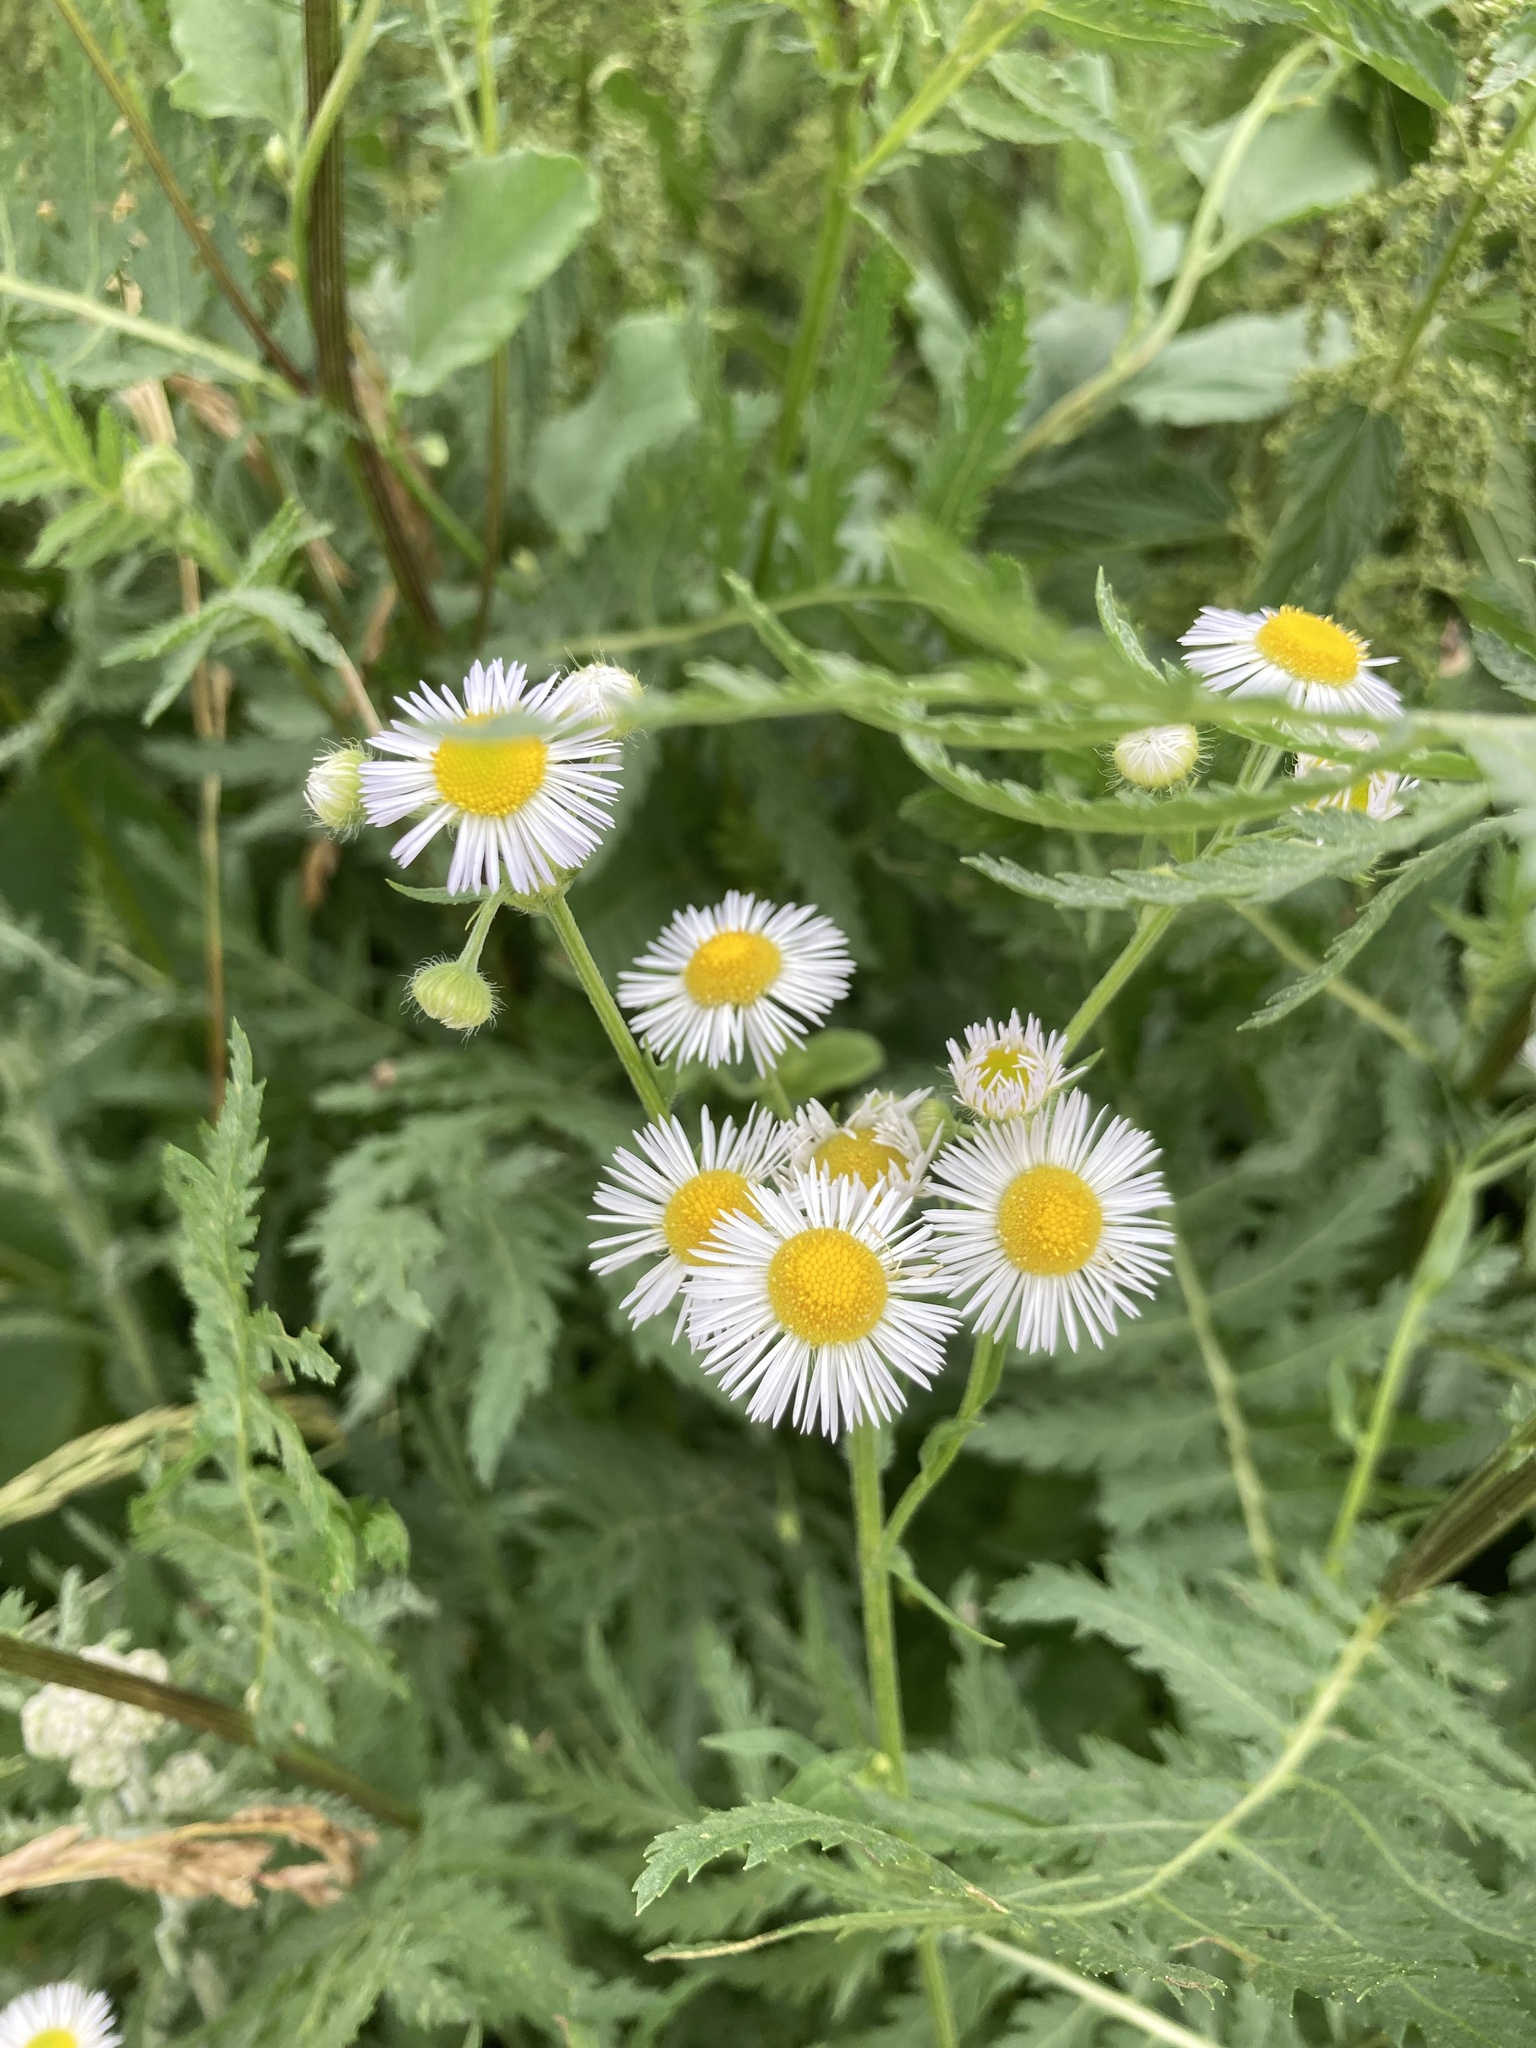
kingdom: Plantae
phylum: Tracheophyta
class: Magnoliopsida
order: Asterales
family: Asteraceae
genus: Erigeron
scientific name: Erigeron annuus
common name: Tall fleabane
